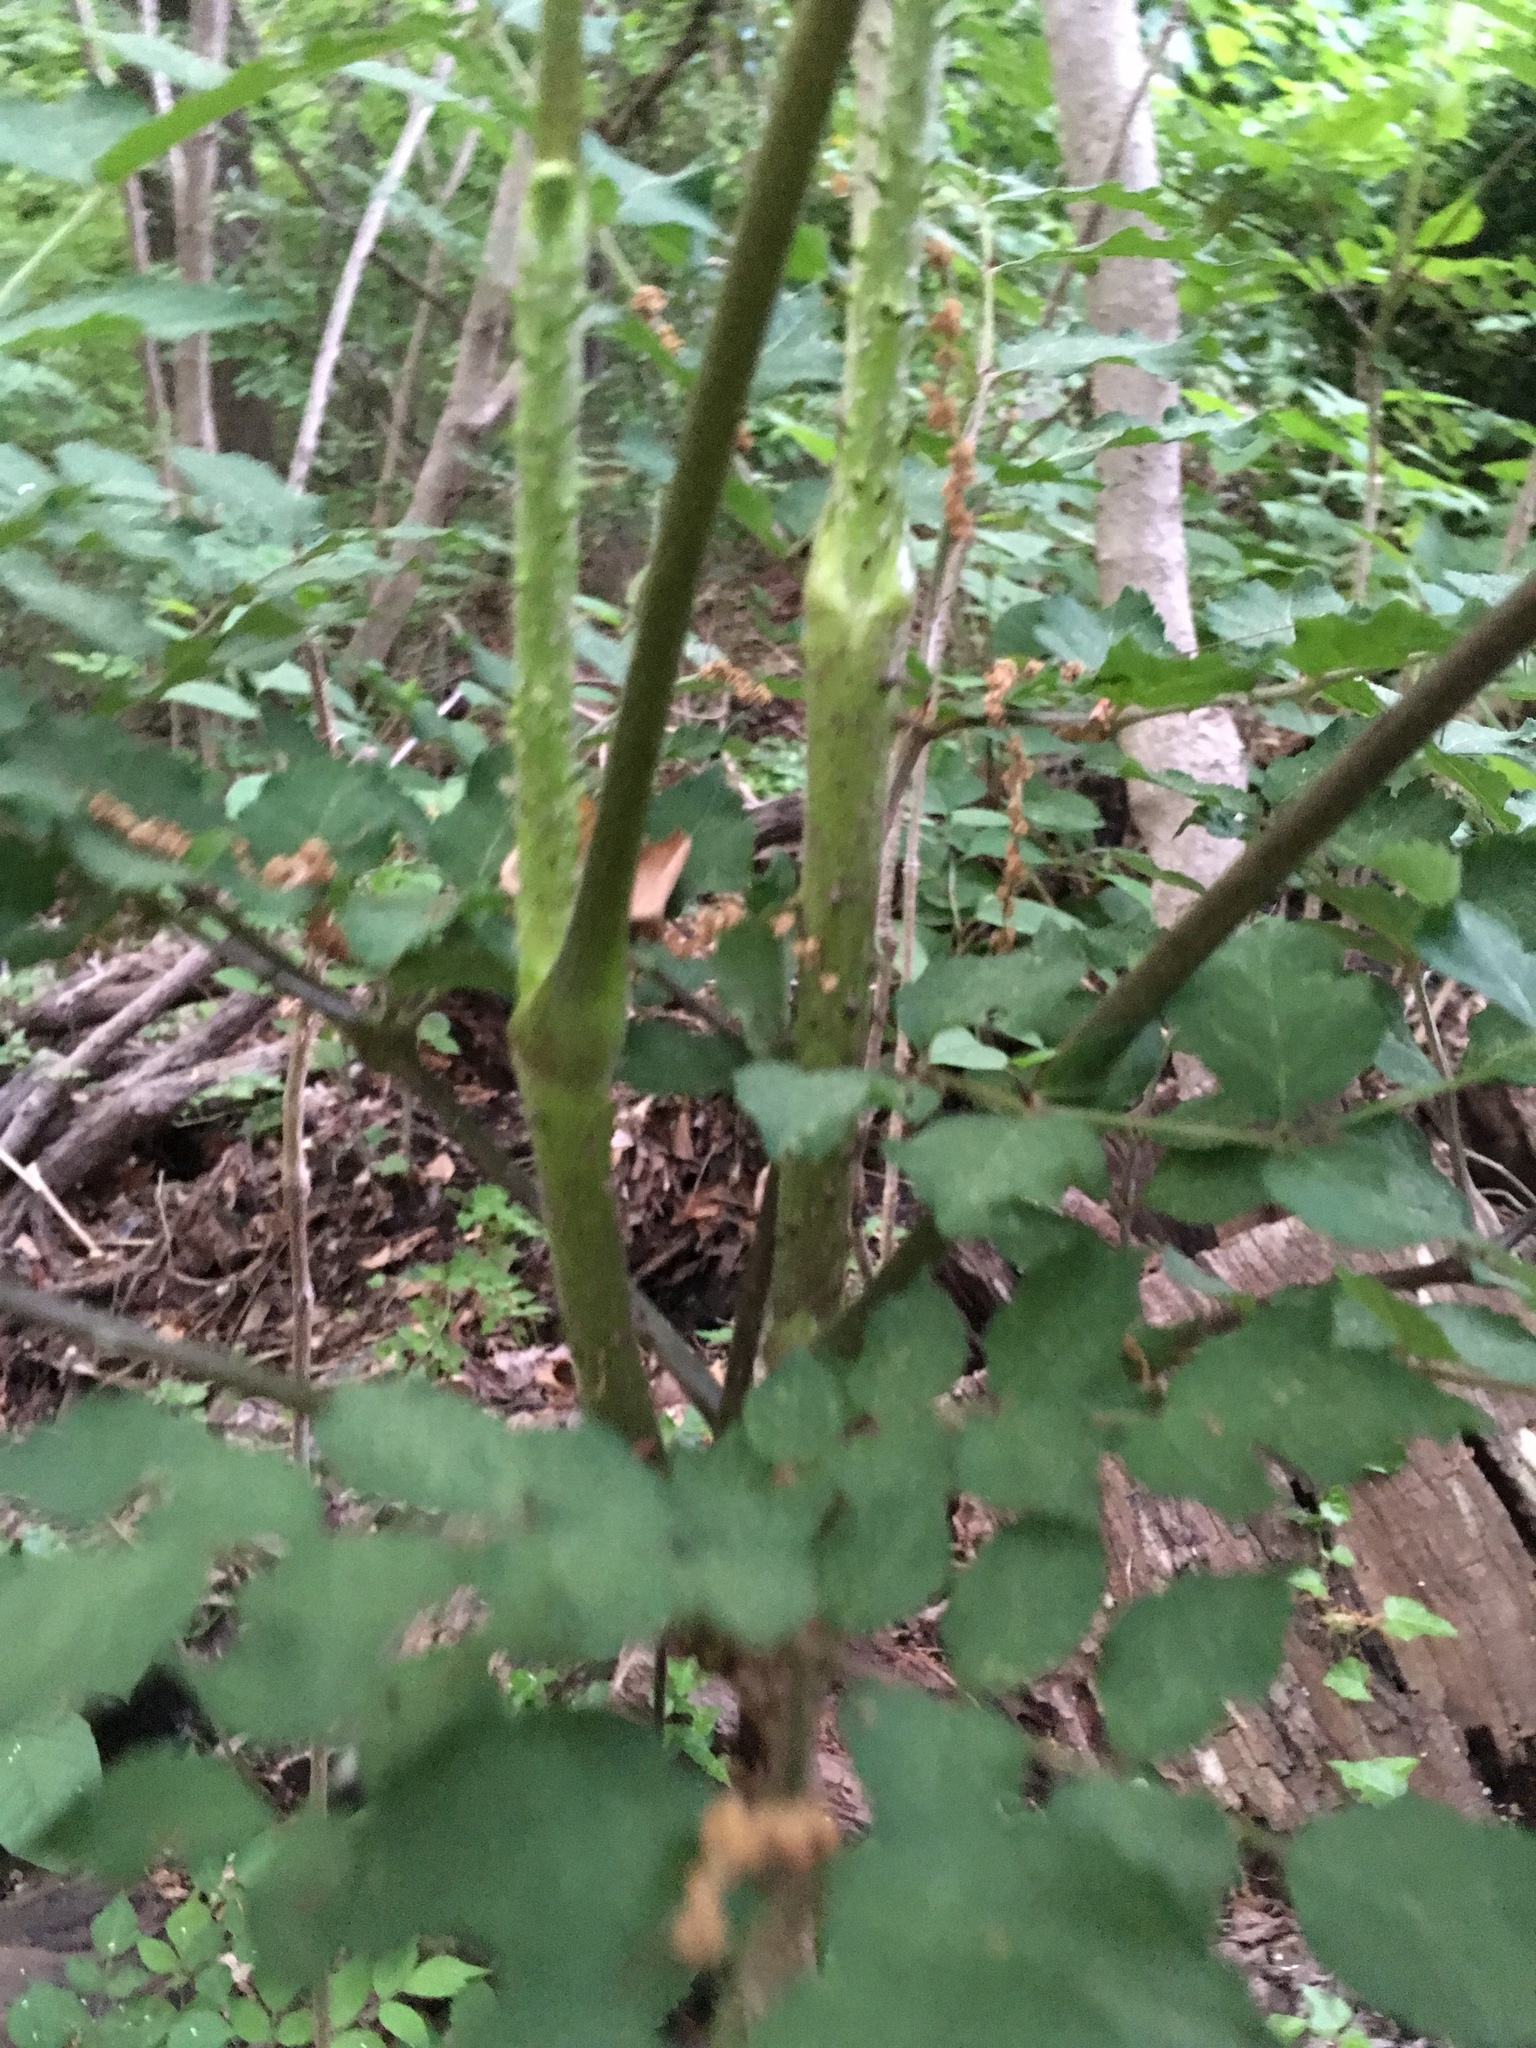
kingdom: Plantae
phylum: Tracheophyta
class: Magnoliopsida
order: Apiales
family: Araliaceae
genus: Aralia
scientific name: Aralia spinosa
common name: Hercules'-club
